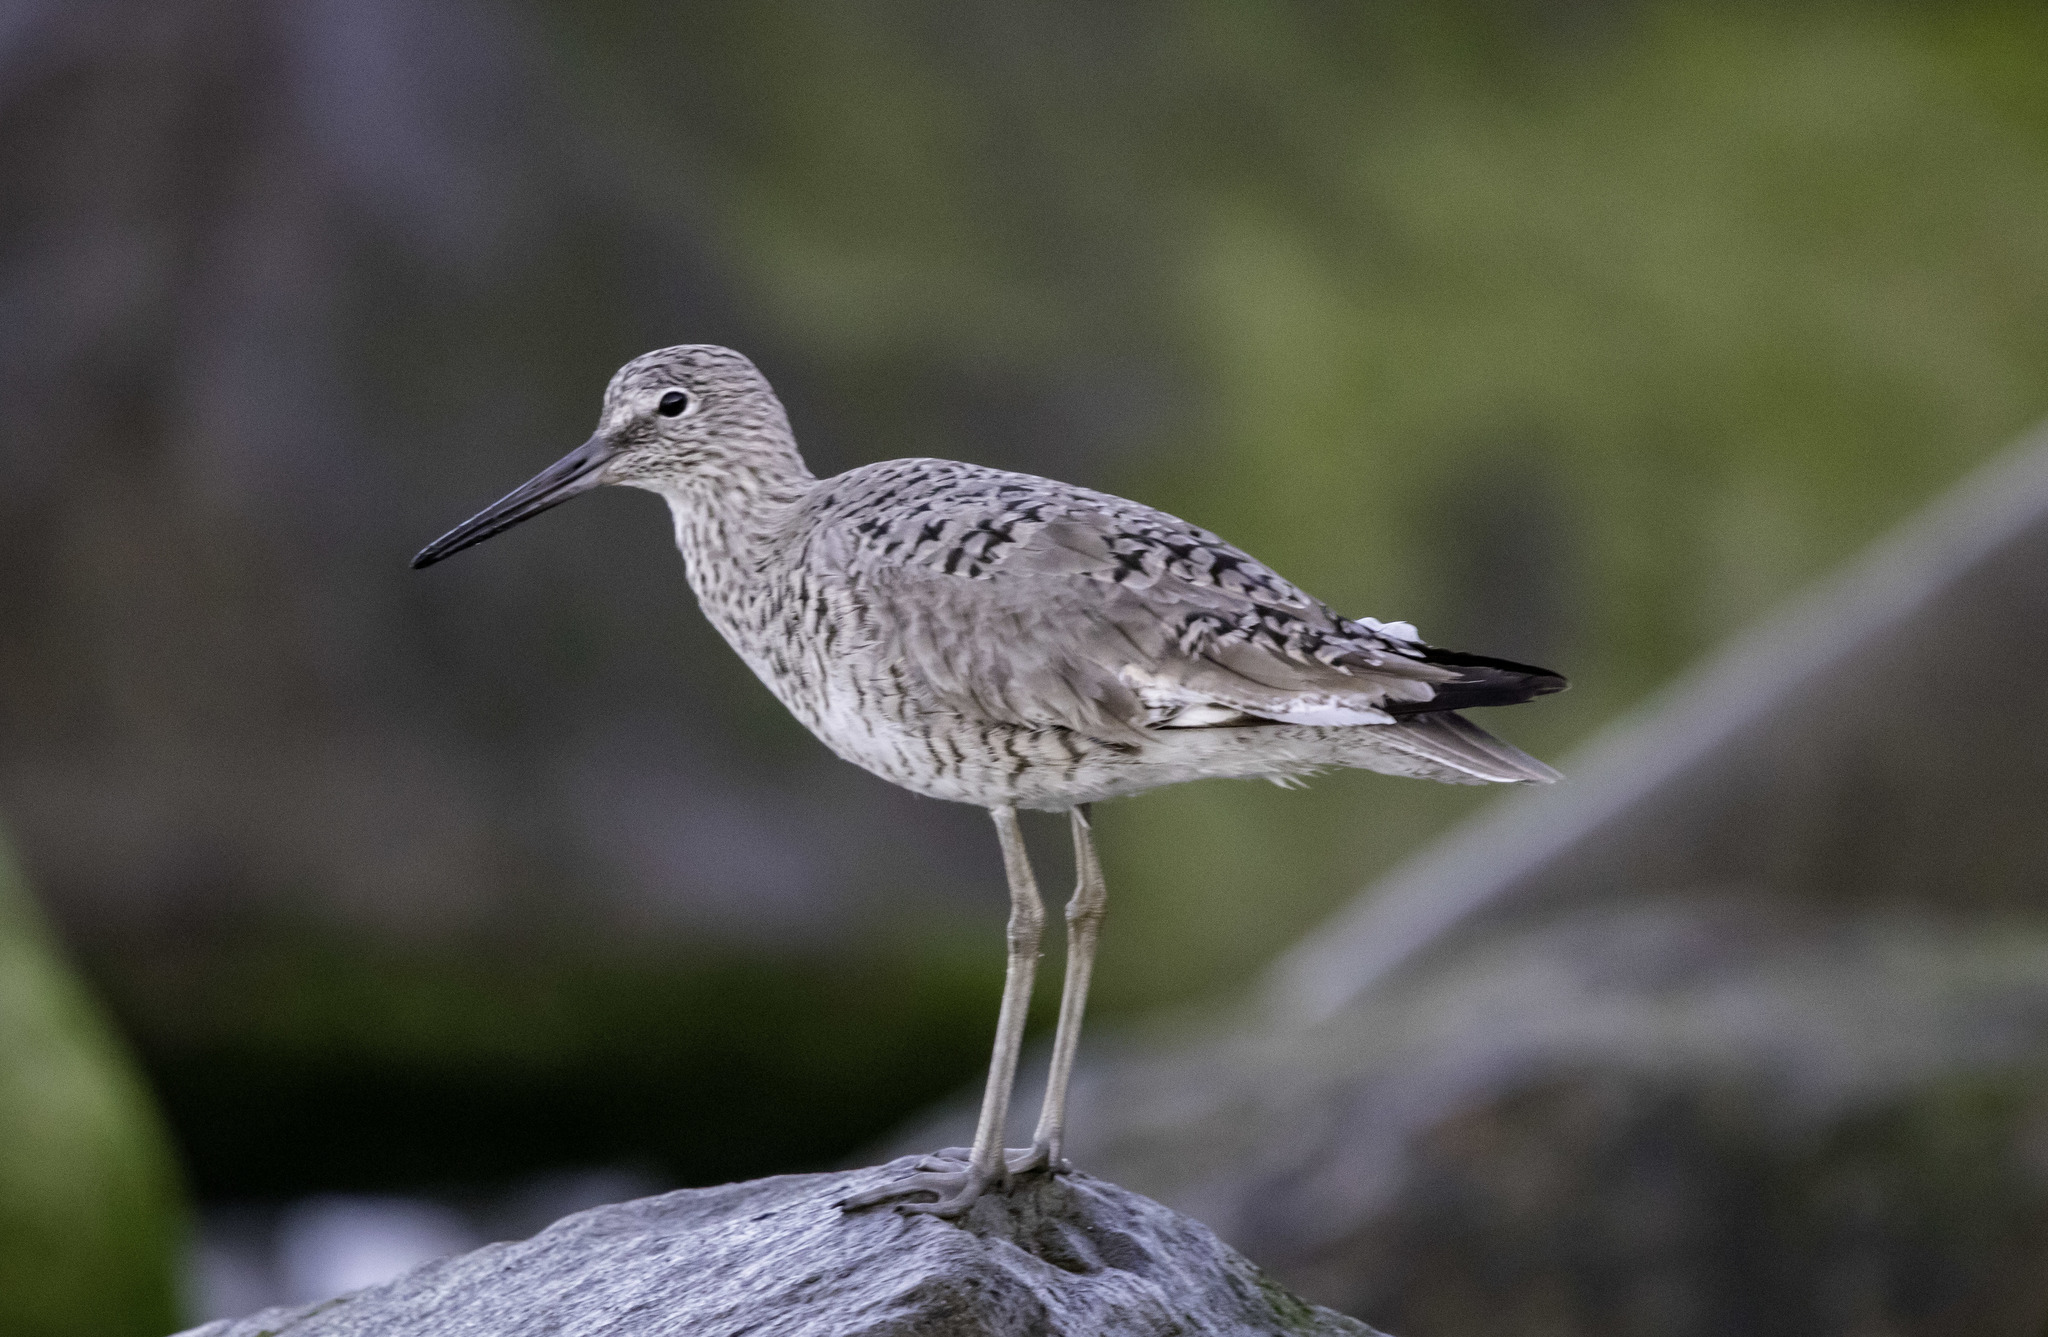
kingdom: Animalia
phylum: Chordata
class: Aves
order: Charadriiformes
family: Scolopacidae
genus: Tringa
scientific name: Tringa semipalmata
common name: Willet
